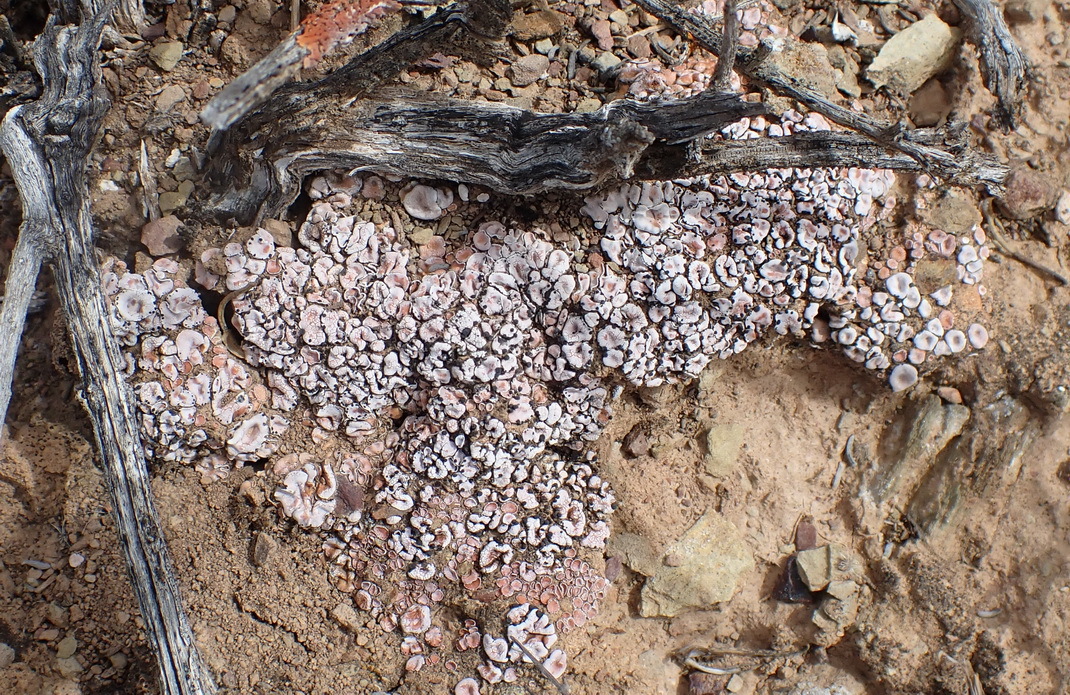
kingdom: Fungi
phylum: Ascomycota
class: Lecanoromycetes
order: Lecanorales
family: Psoraceae
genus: Psora
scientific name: Psora crenata
